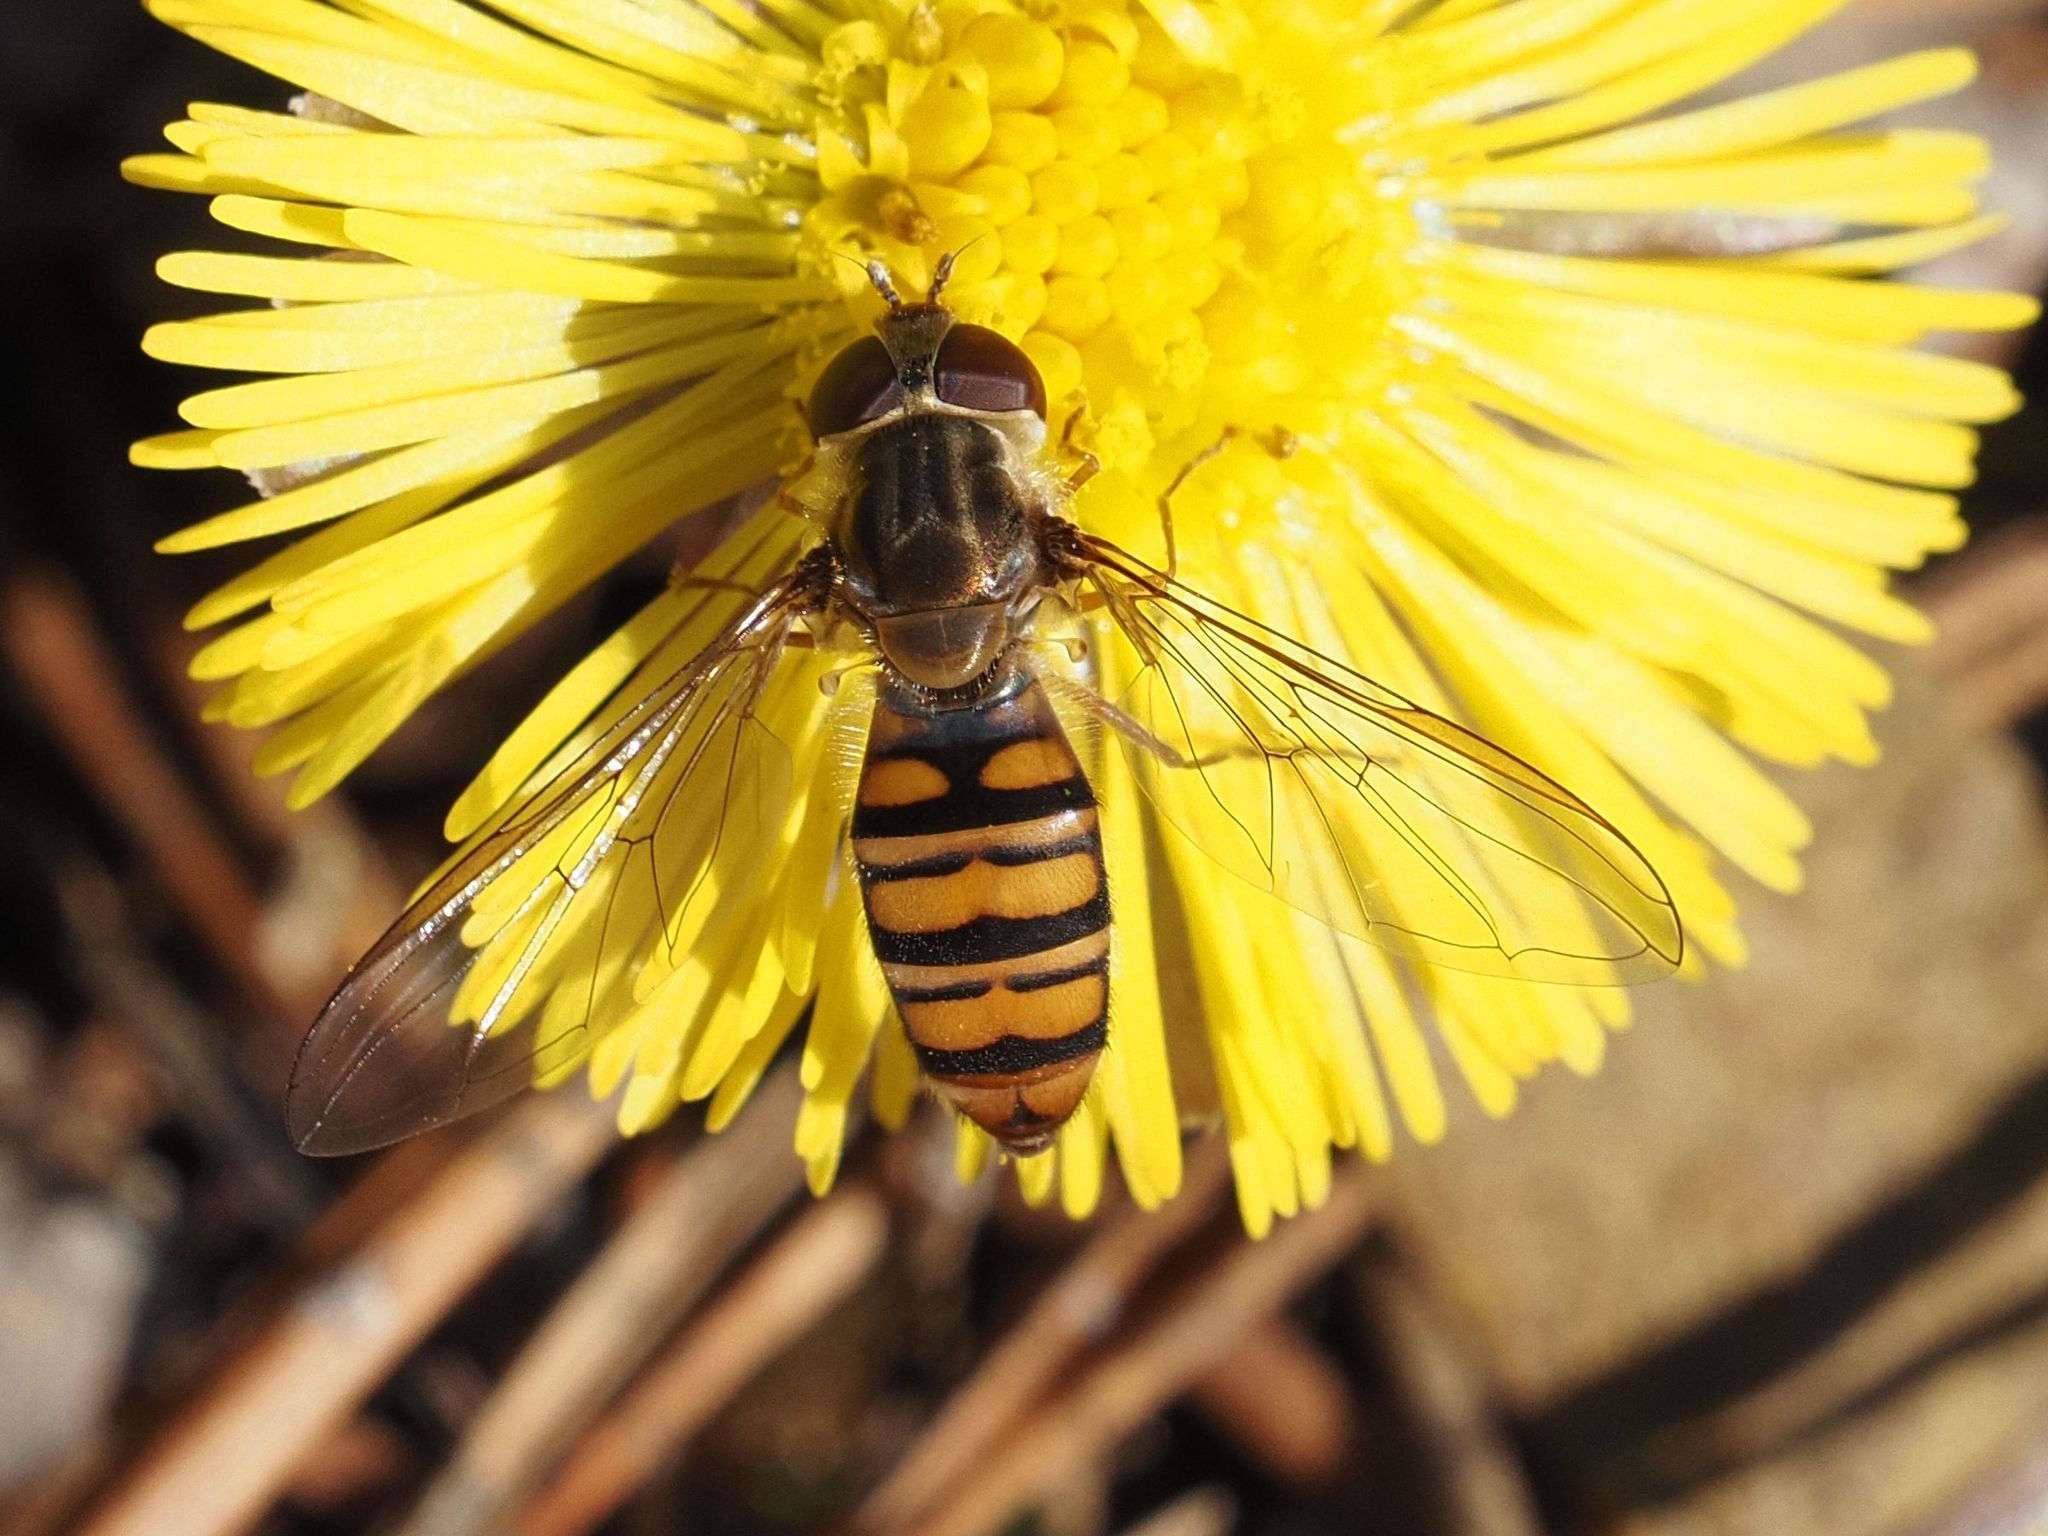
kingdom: Animalia
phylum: Arthropoda
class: Insecta
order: Diptera
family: Syrphidae
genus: Episyrphus
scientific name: Episyrphus balteatus
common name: Marmalade hoverfly
